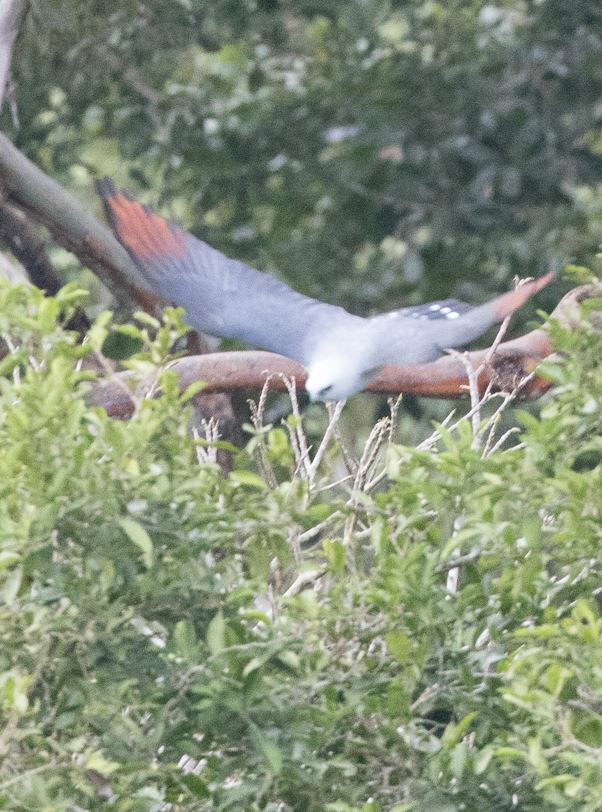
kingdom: Animalia
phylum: Chordata
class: Aves
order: Accipitriformes
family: Accipitridae
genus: Ictinia
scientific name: Ictinia plumbea
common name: Plumbeous kite
